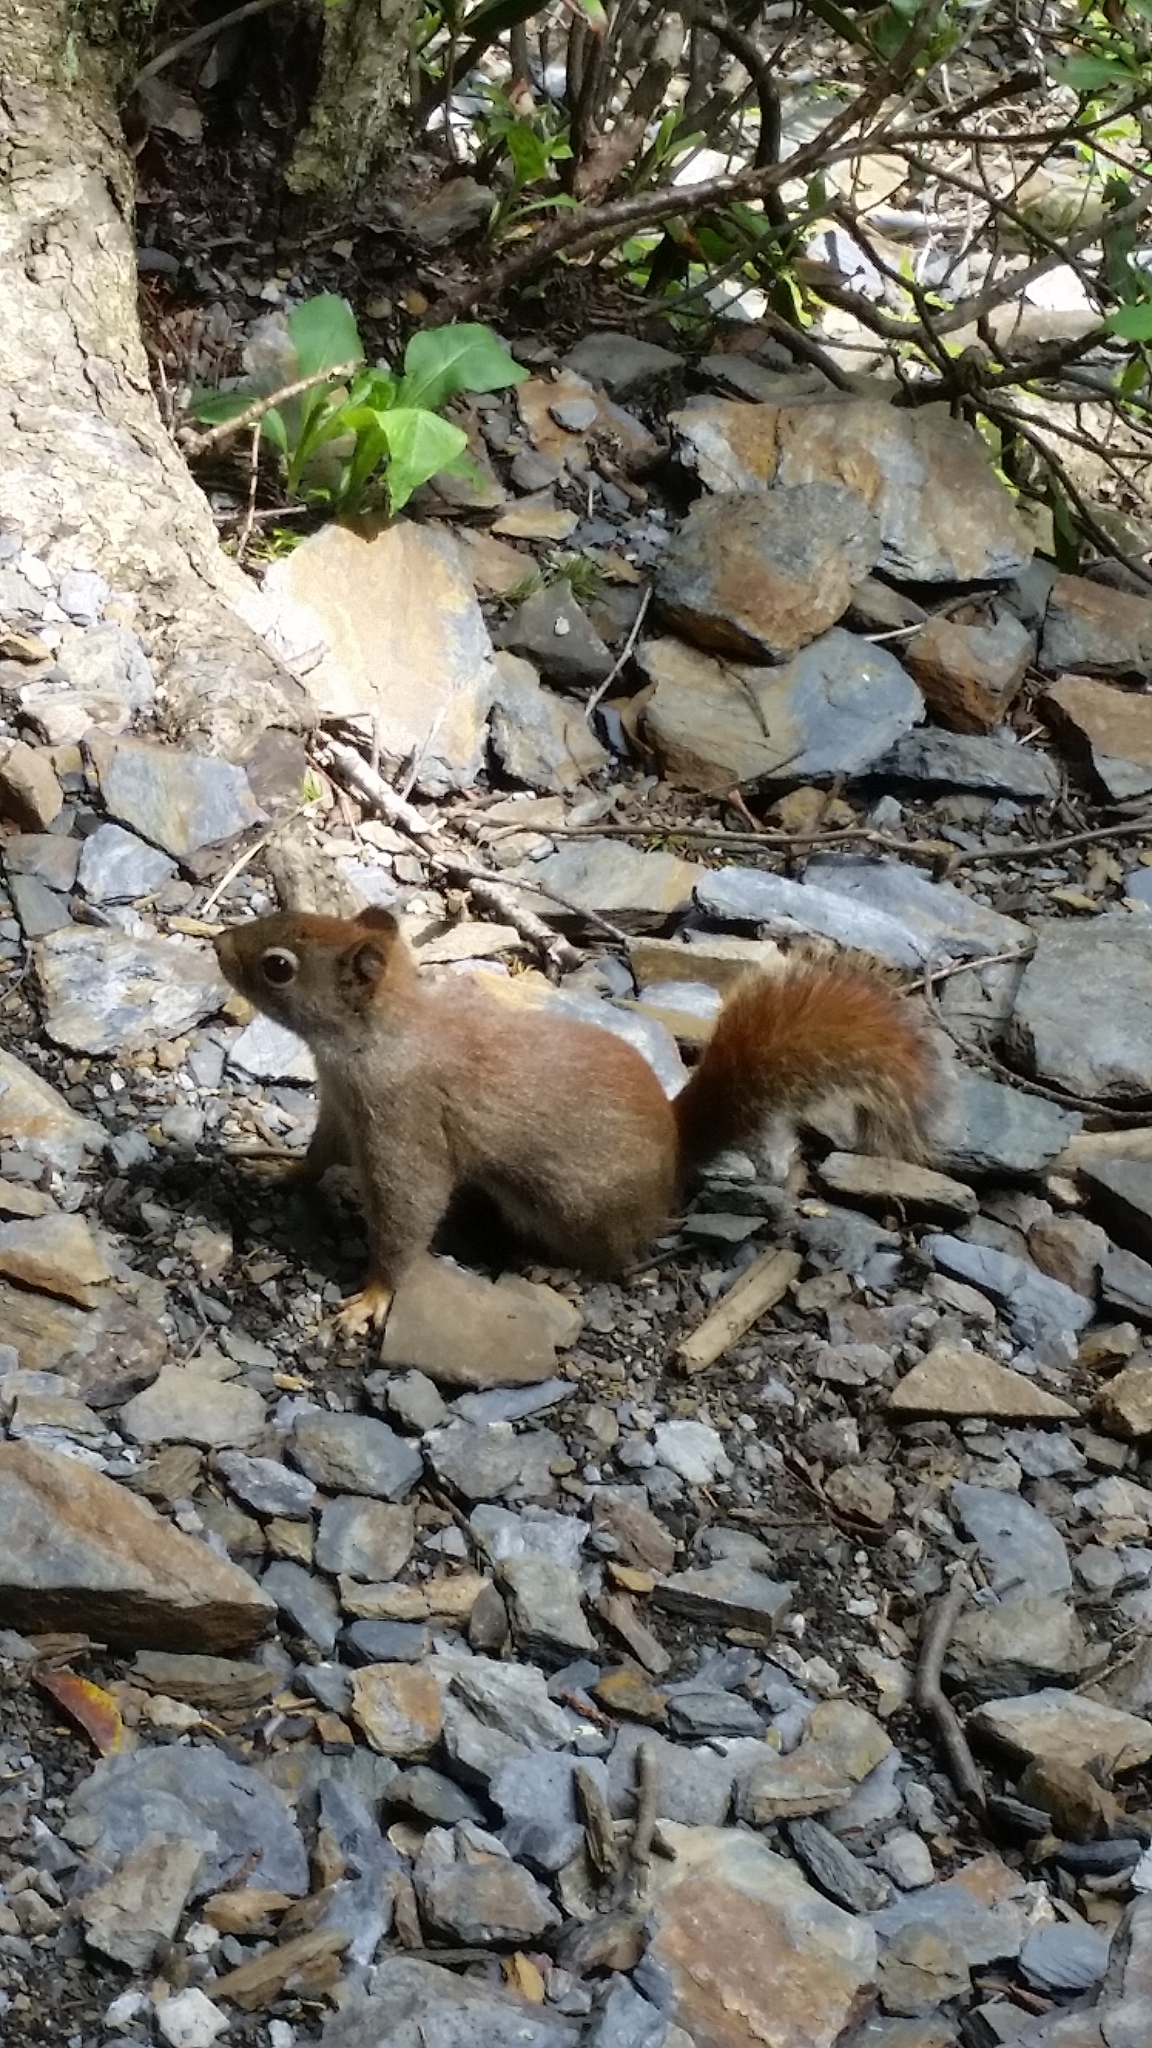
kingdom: Animalia
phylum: Chordata
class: Mammalia
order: Rodentia
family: Sciuridae
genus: Tamiasciurus
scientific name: Tamiasciurus hudsonicus
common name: Red squirrel
